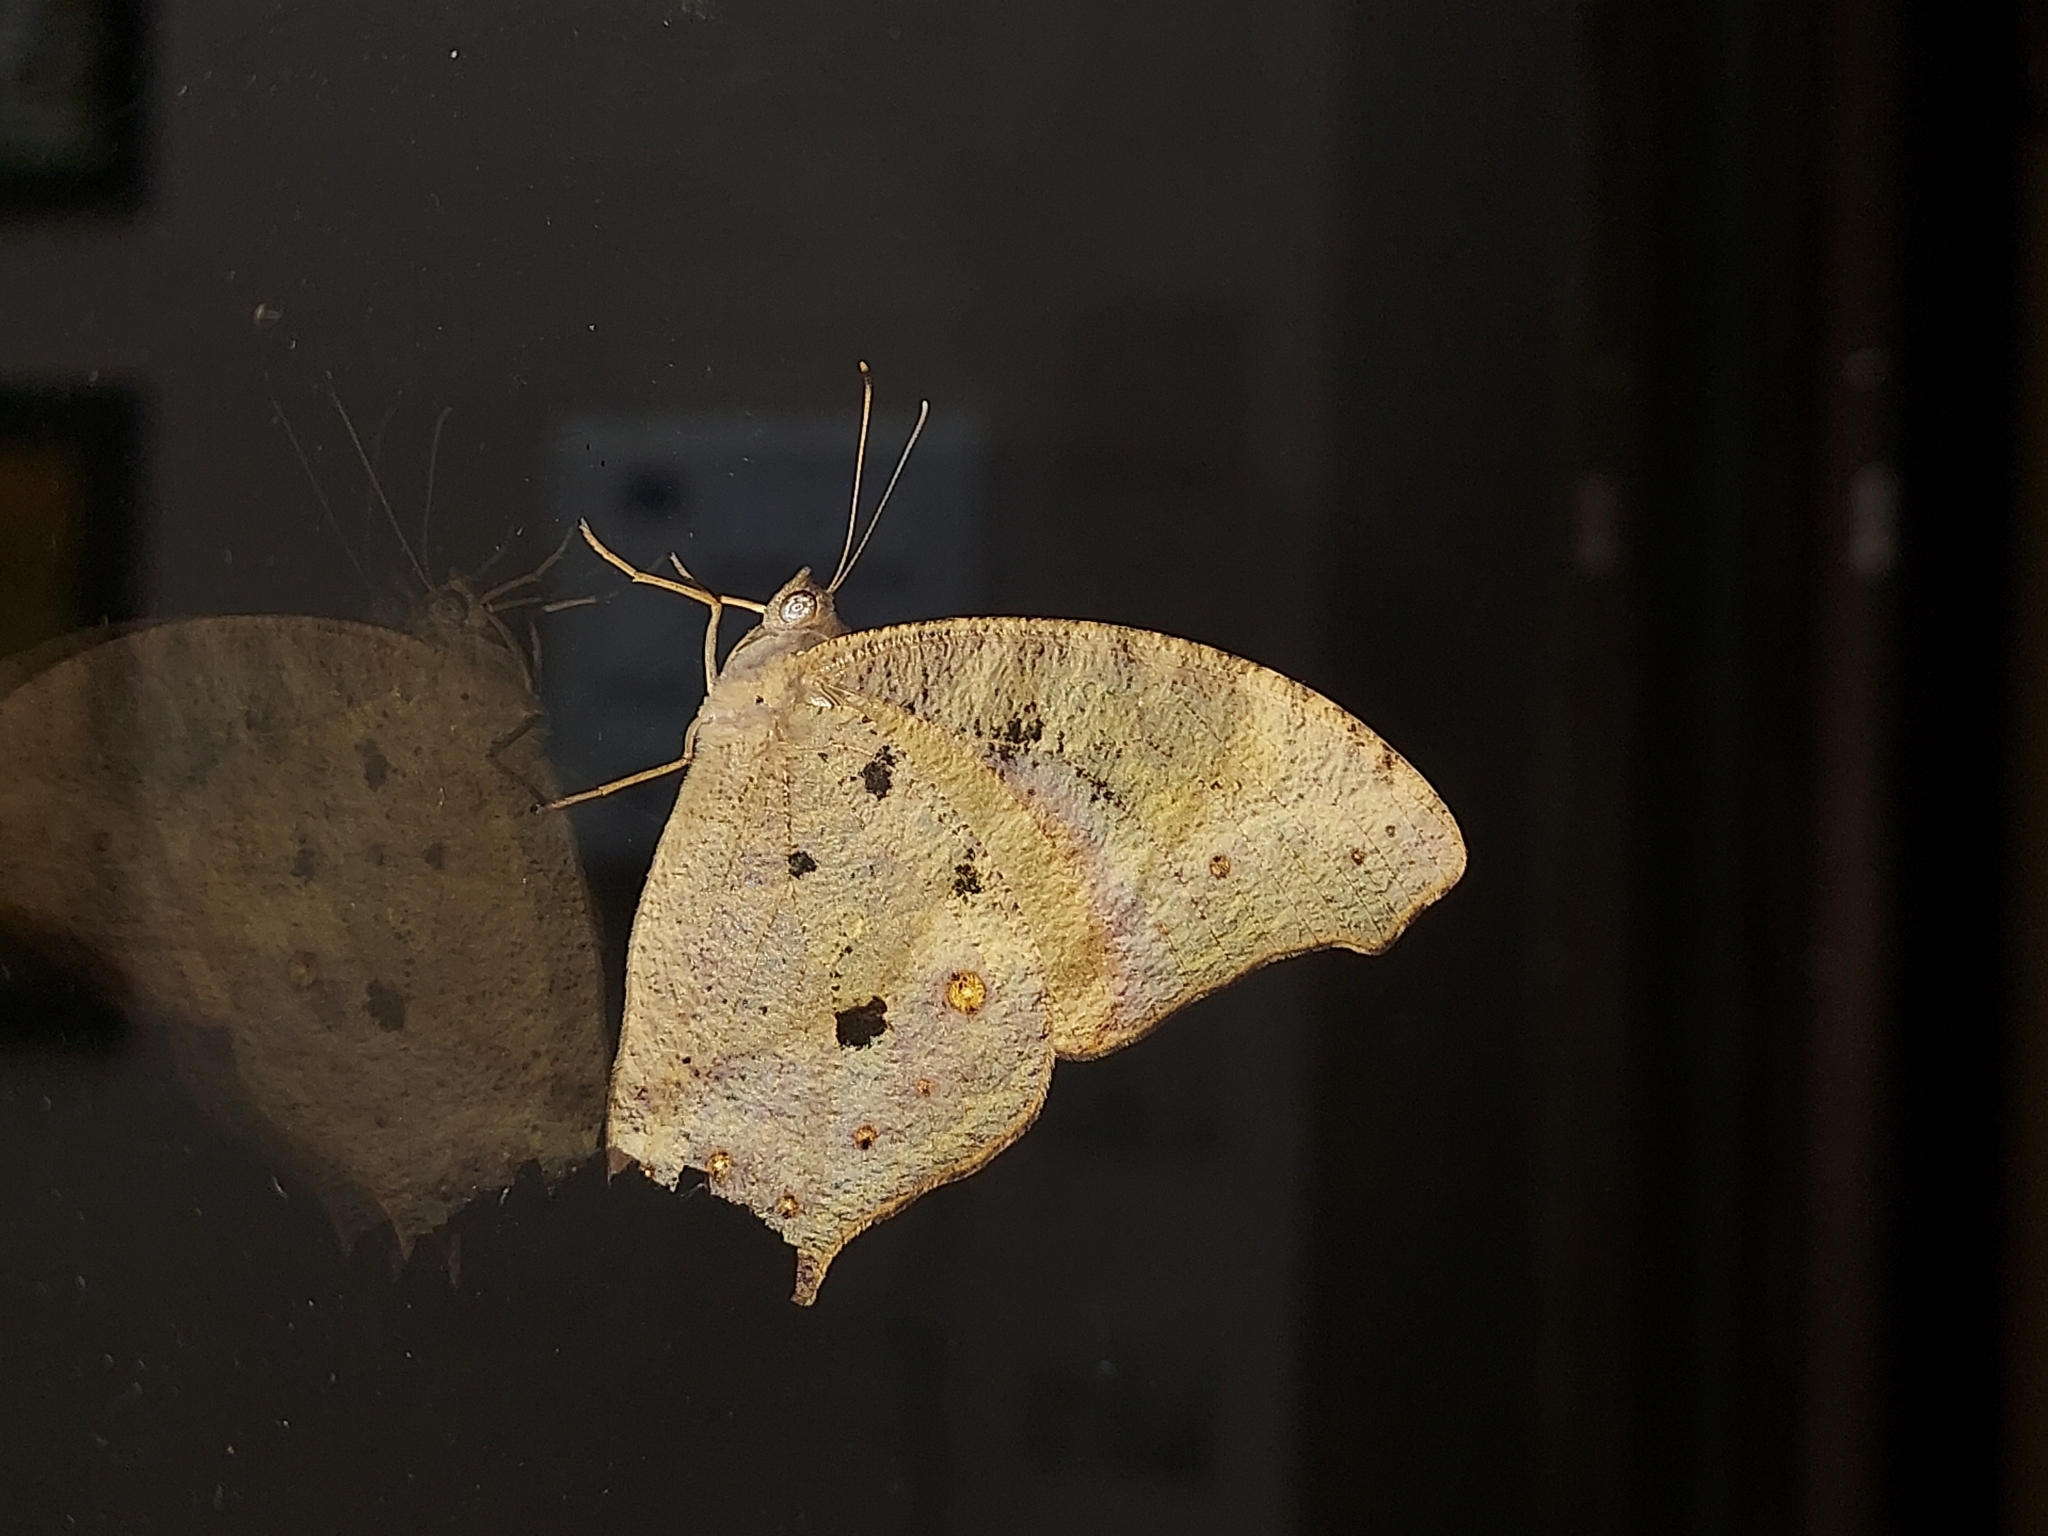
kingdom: Animalia
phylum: Arthropoda
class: Insecta
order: Lepidoptera
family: Nymphalidae
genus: Melanitis
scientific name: Melanitis leda
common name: Twilight brown
